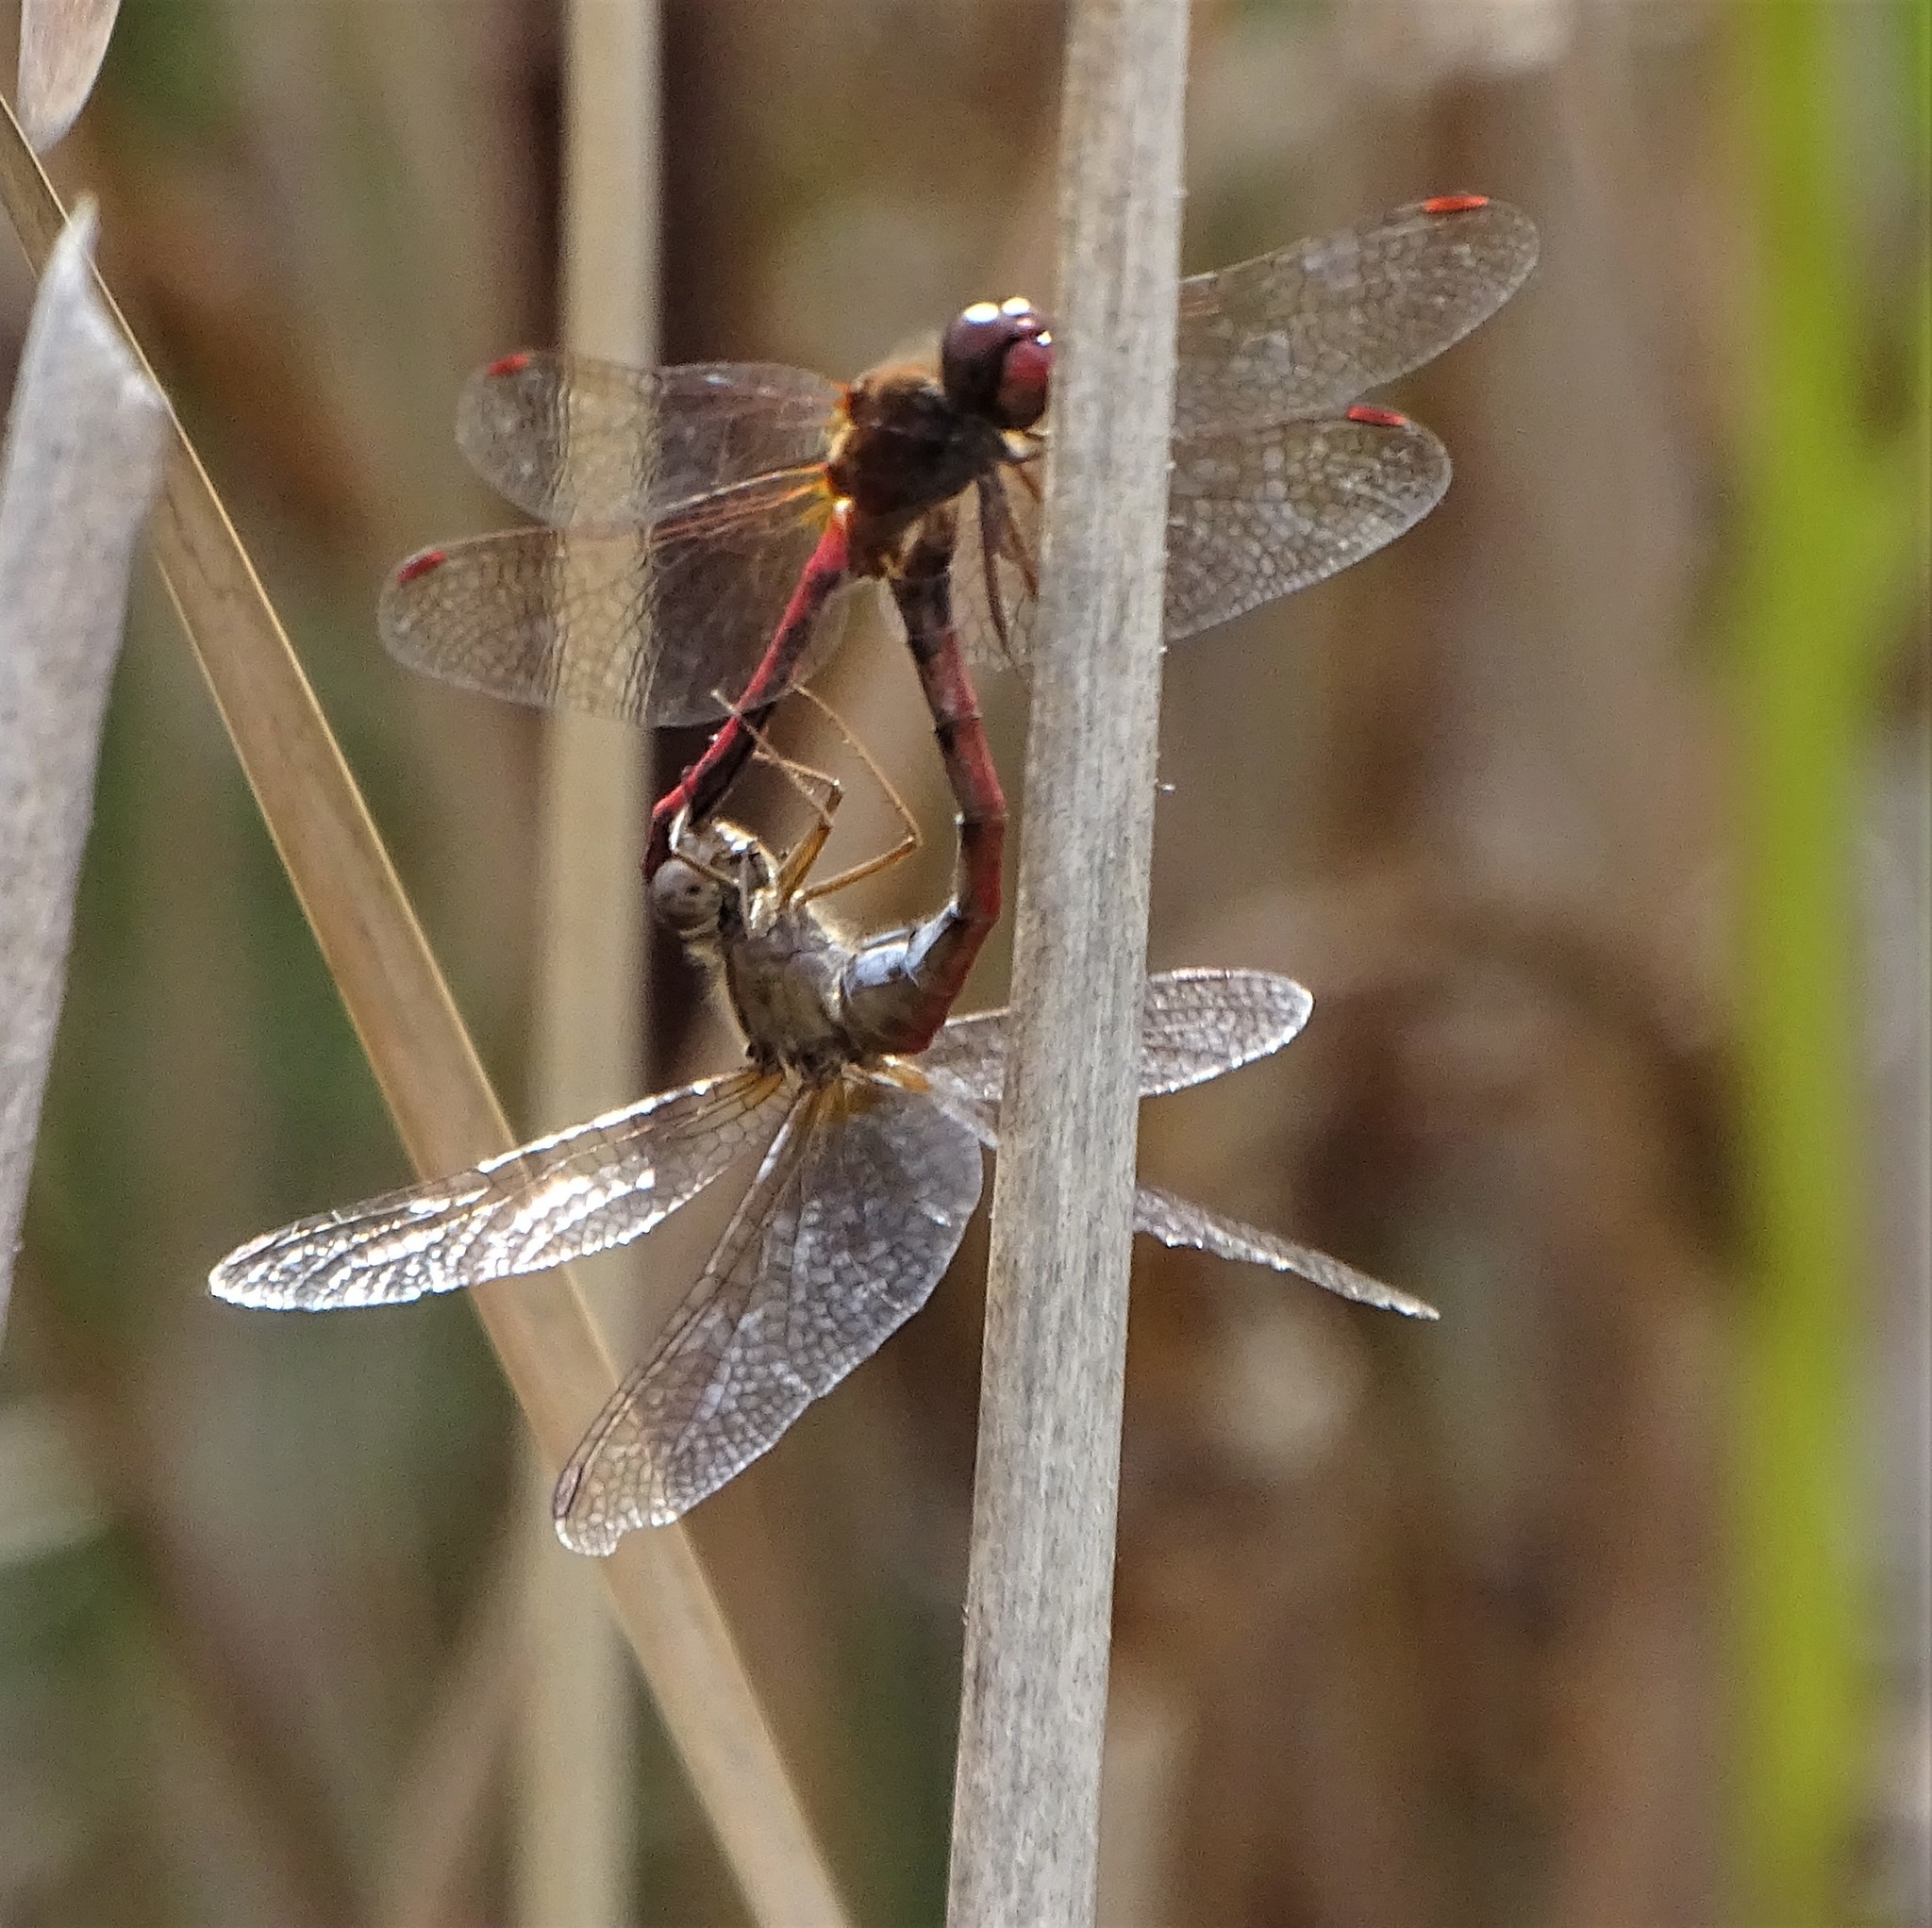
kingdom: Animalia
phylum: Arthropoda
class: Insecta
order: Odonata
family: Libellulidae
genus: Sympetrum
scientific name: Sympetrum vicinum
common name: Autumn meadowhawk
